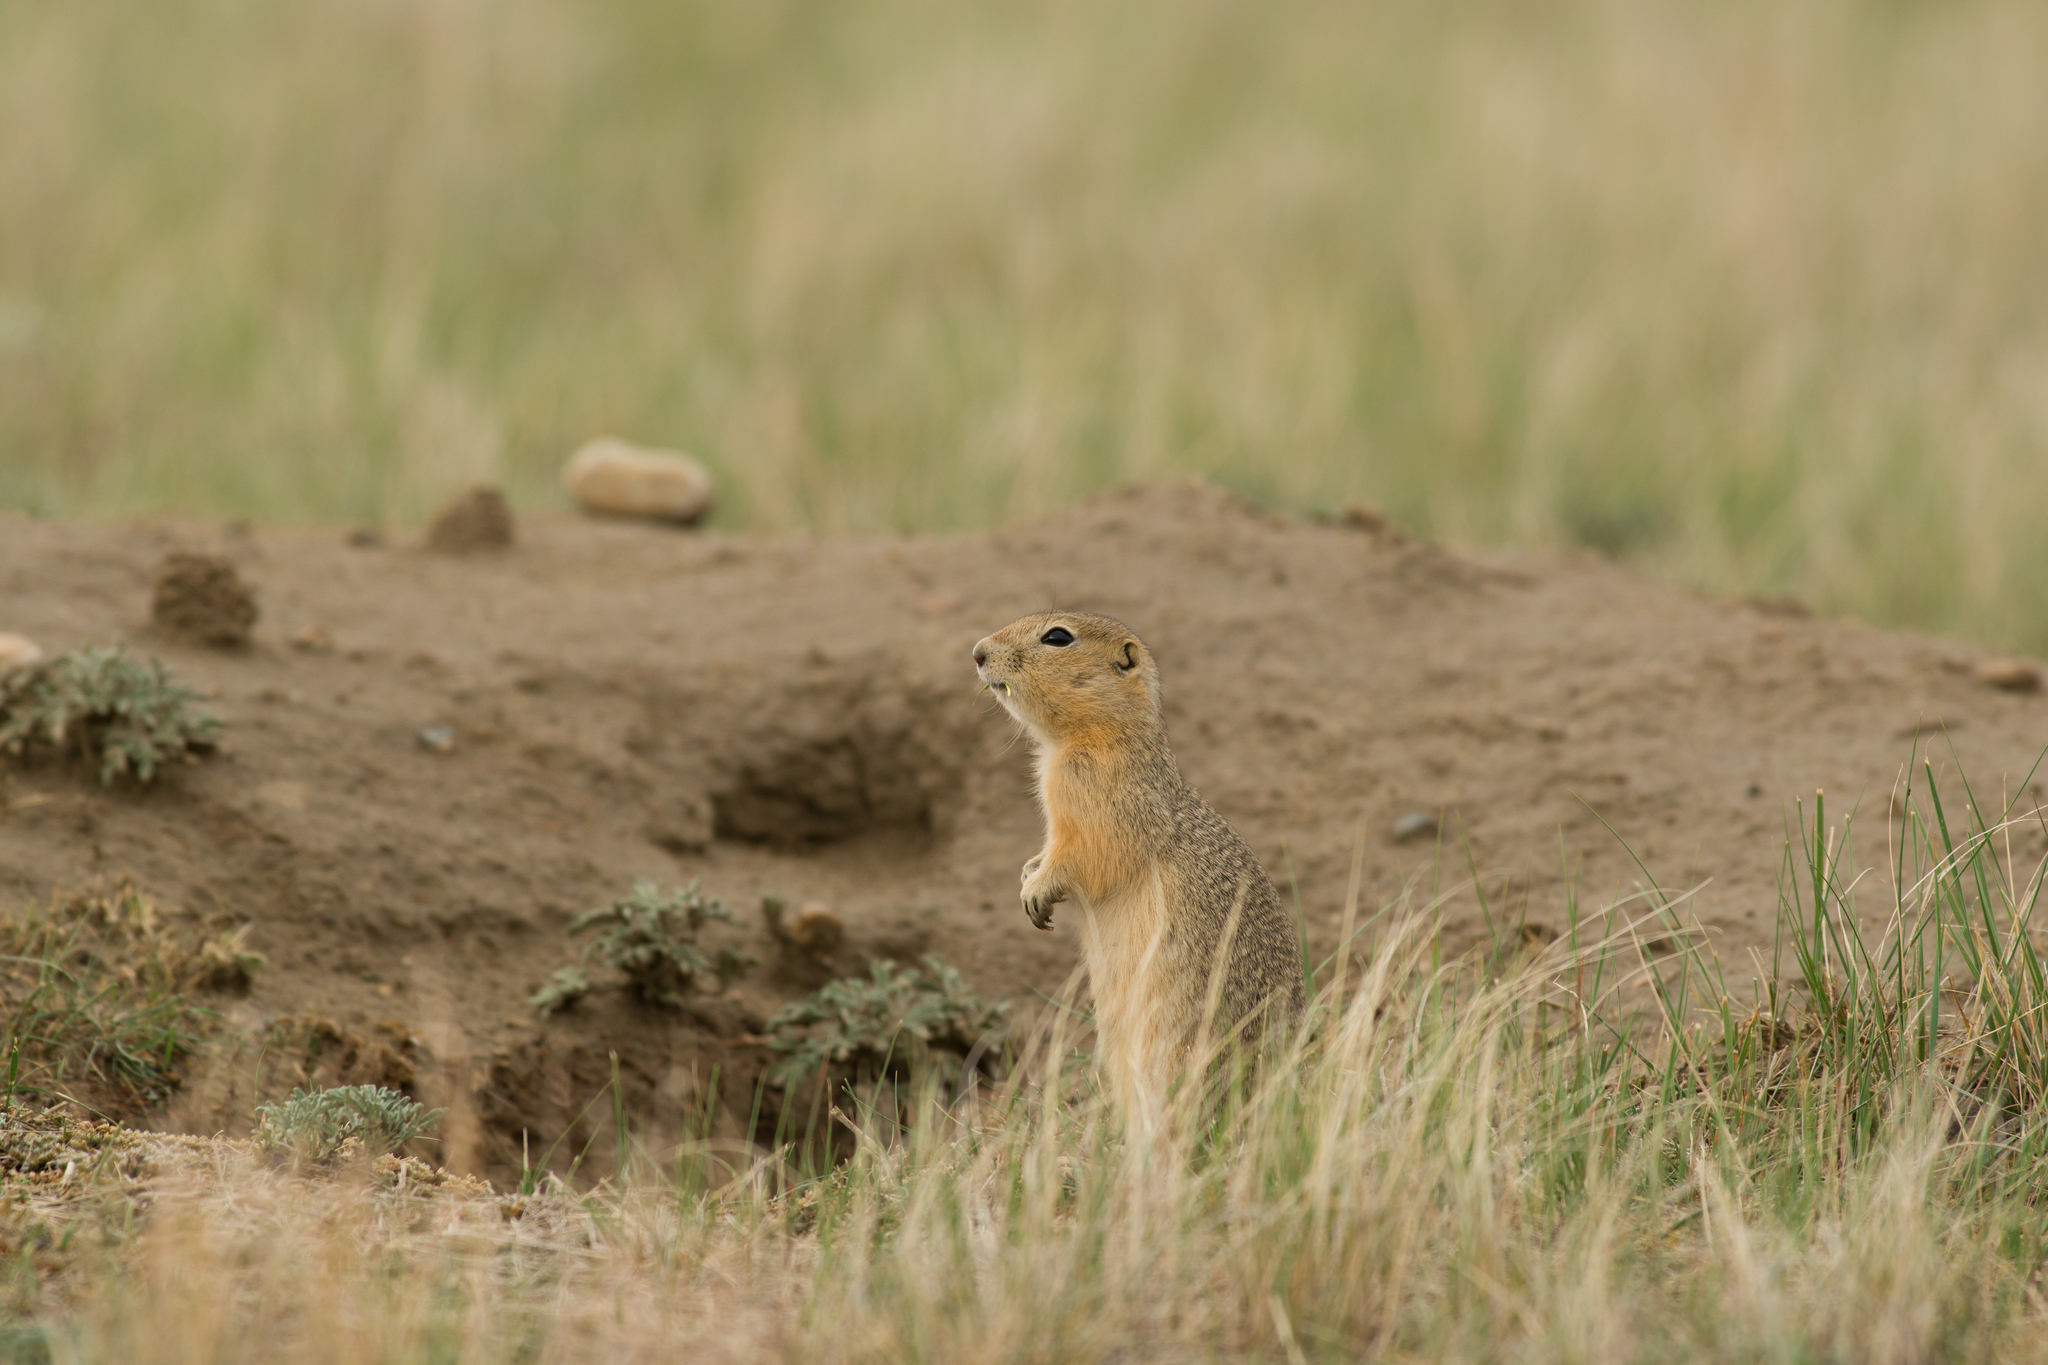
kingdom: Animalia
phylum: Chordata
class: Mammalia
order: Rodentia
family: Sciuridae
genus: Urocitellus
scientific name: Urocitellus richardsonii
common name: Richardson's ground squirrel
